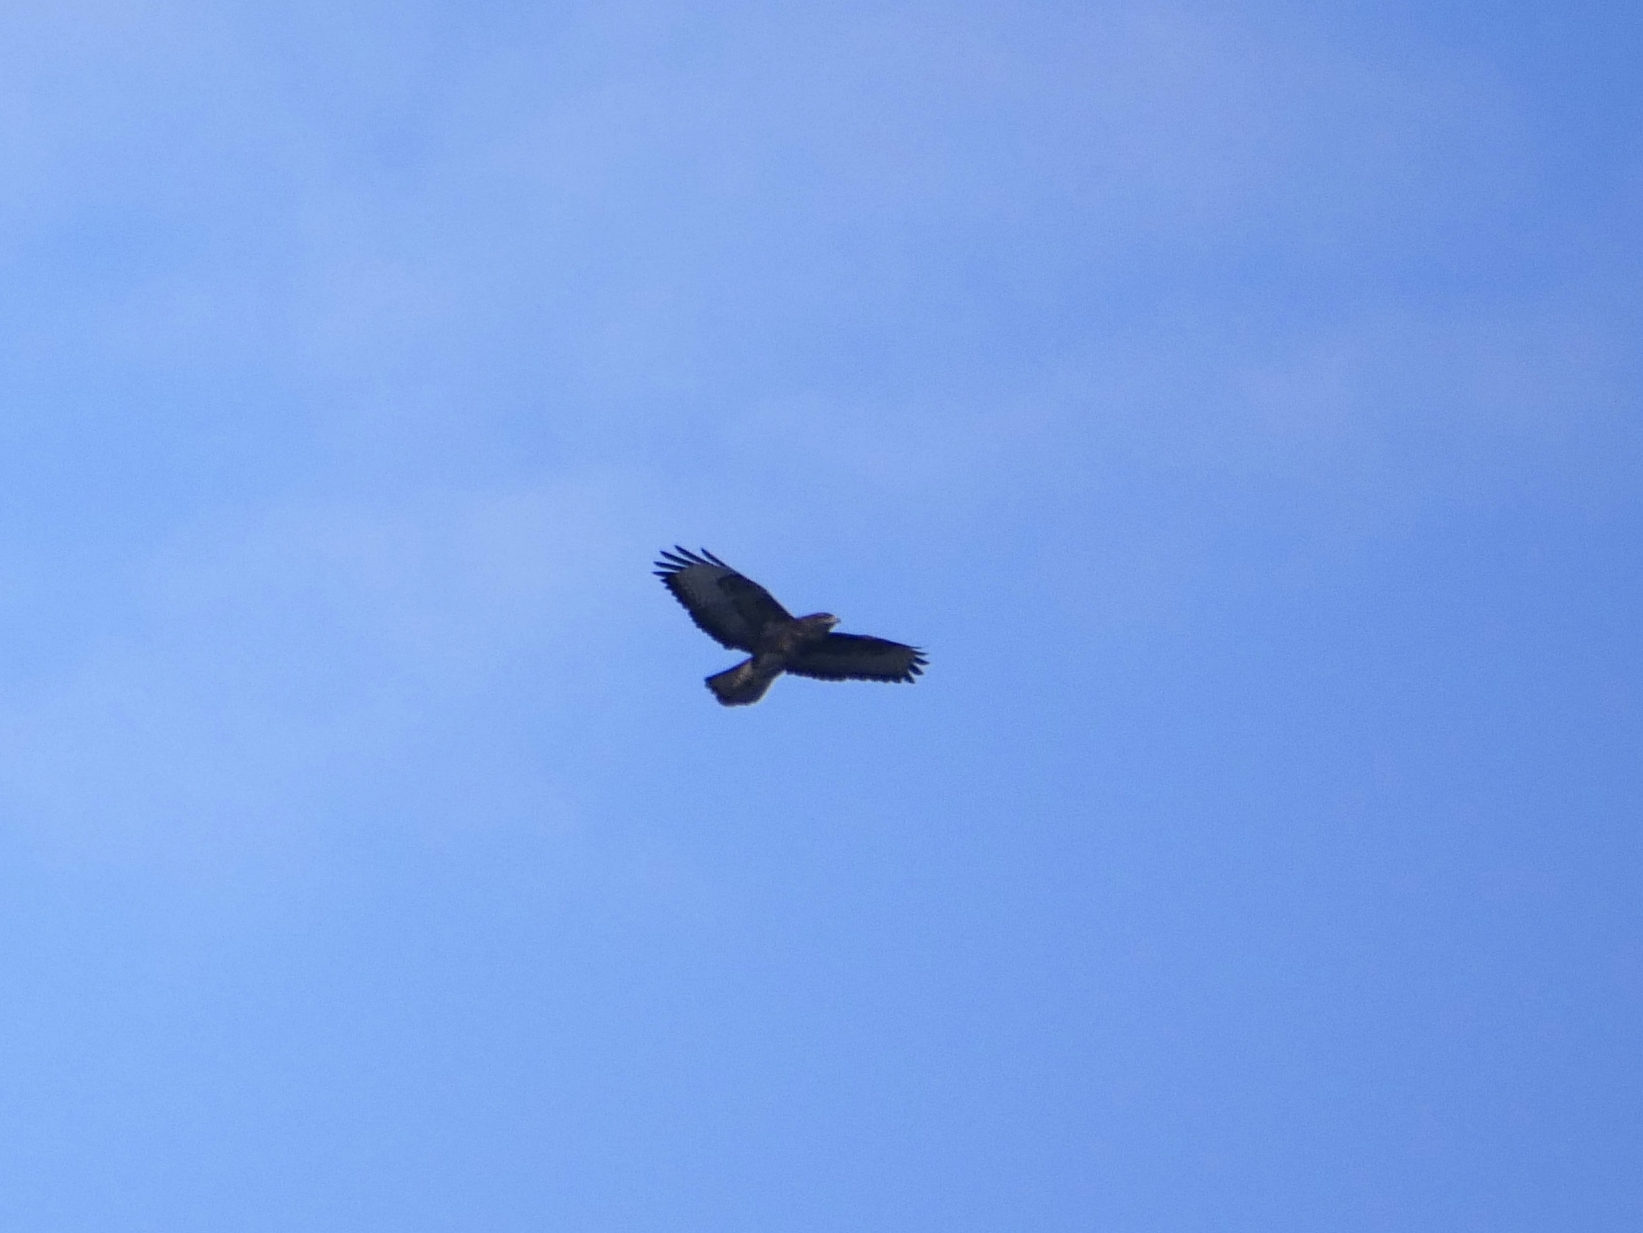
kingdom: Animalia
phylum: Chordata
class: Aves
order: Accipitriformes
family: Accipitridae
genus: Buteo
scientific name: Buteo buteo
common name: Common buzzard
